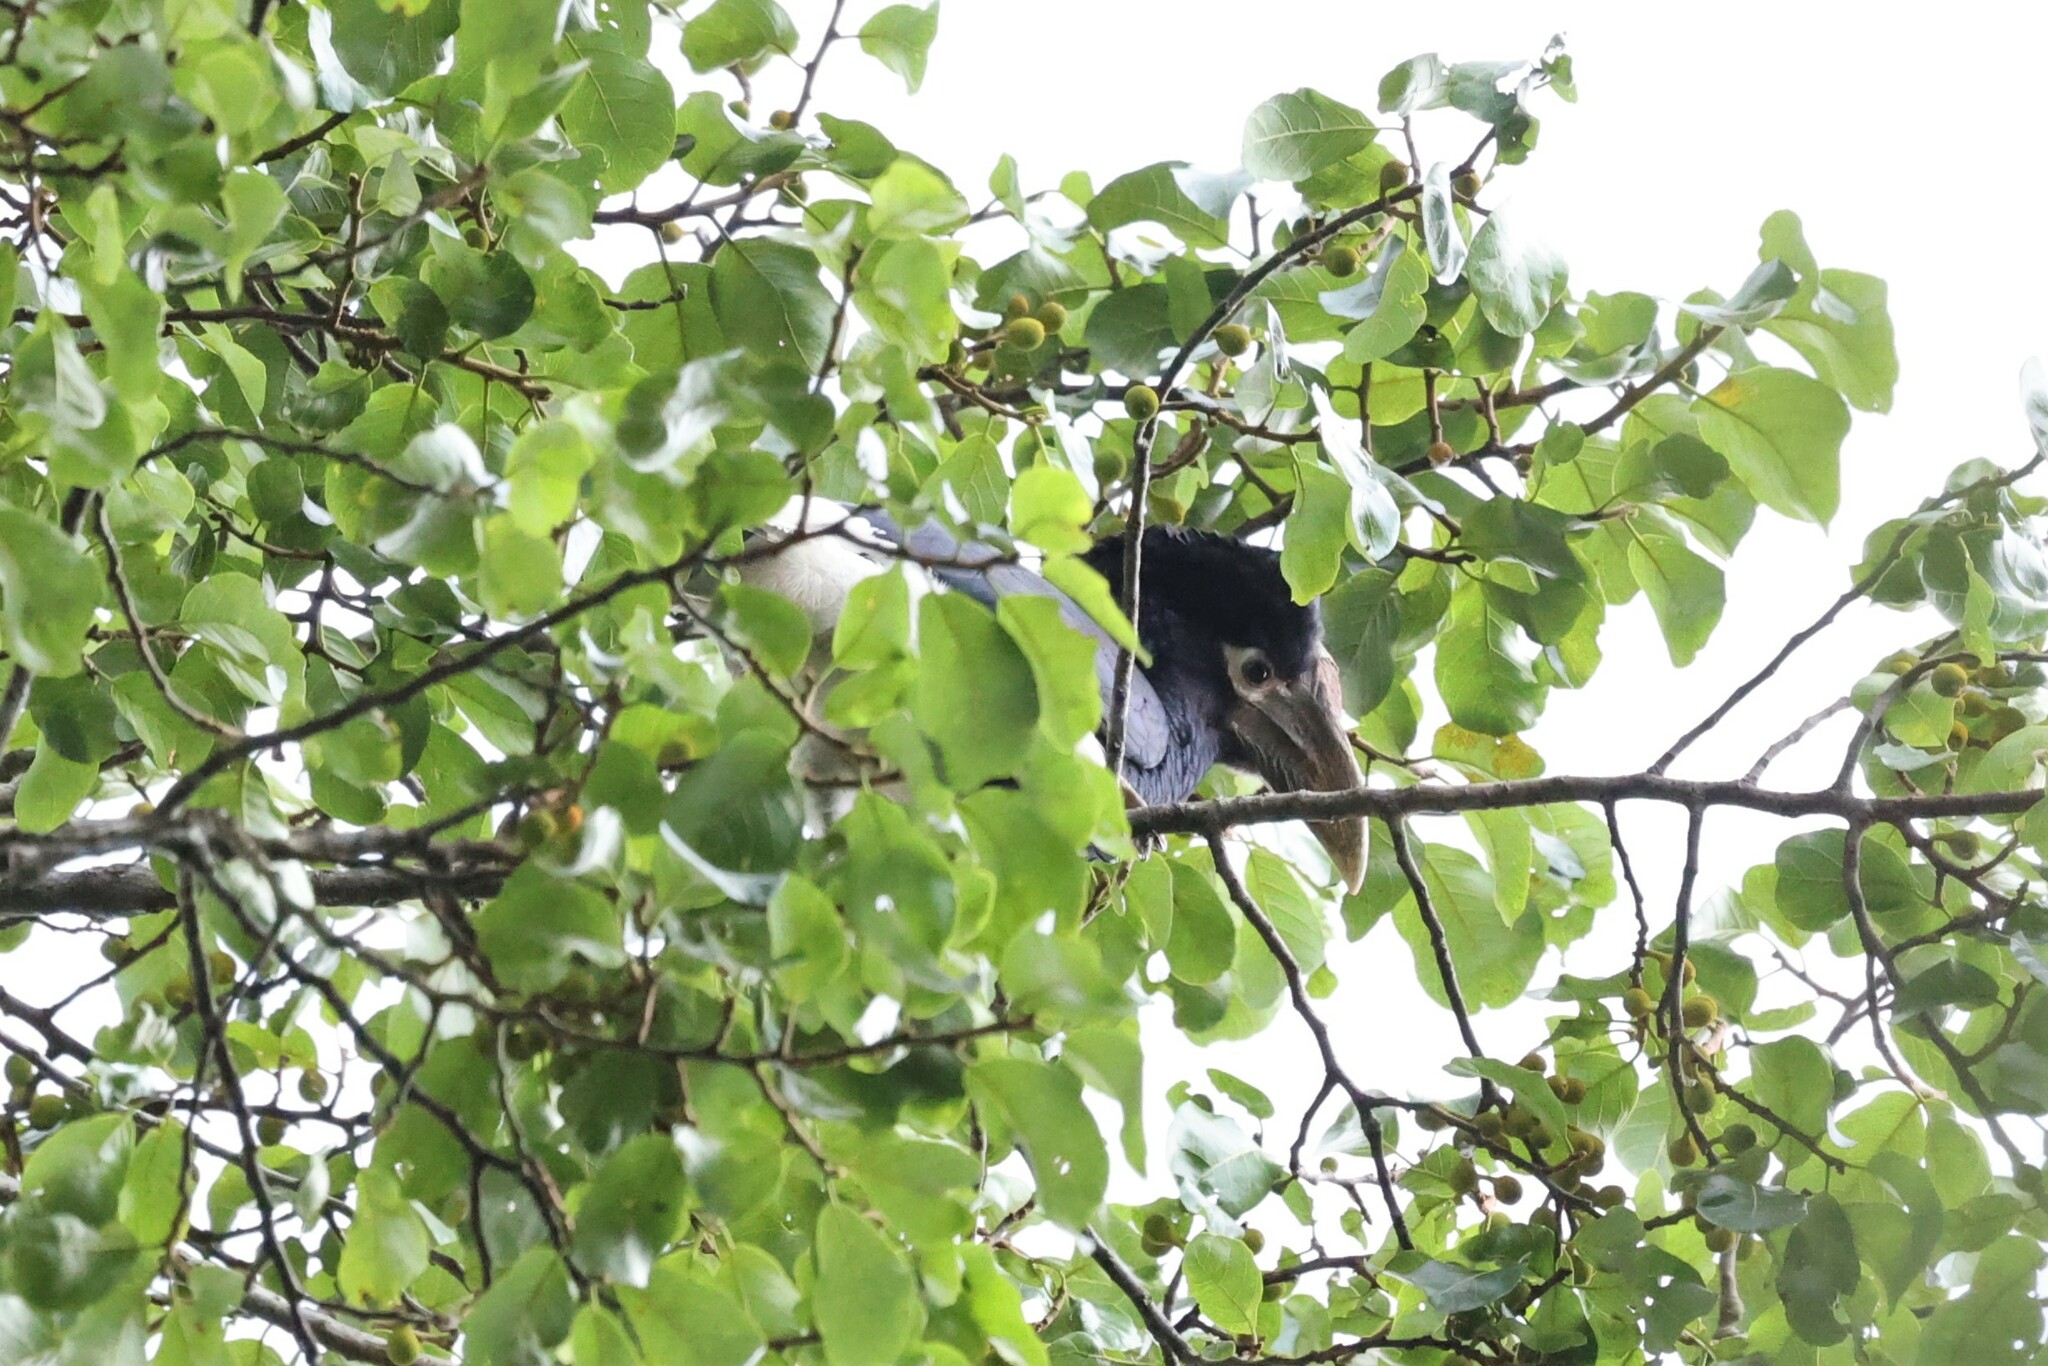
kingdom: Animalia
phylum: Chordata
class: Aves
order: Bucerotiformes
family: Bucerotidae
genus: Bycanistes
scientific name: Bycanistes albotibialis
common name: White-thighed hornbill
